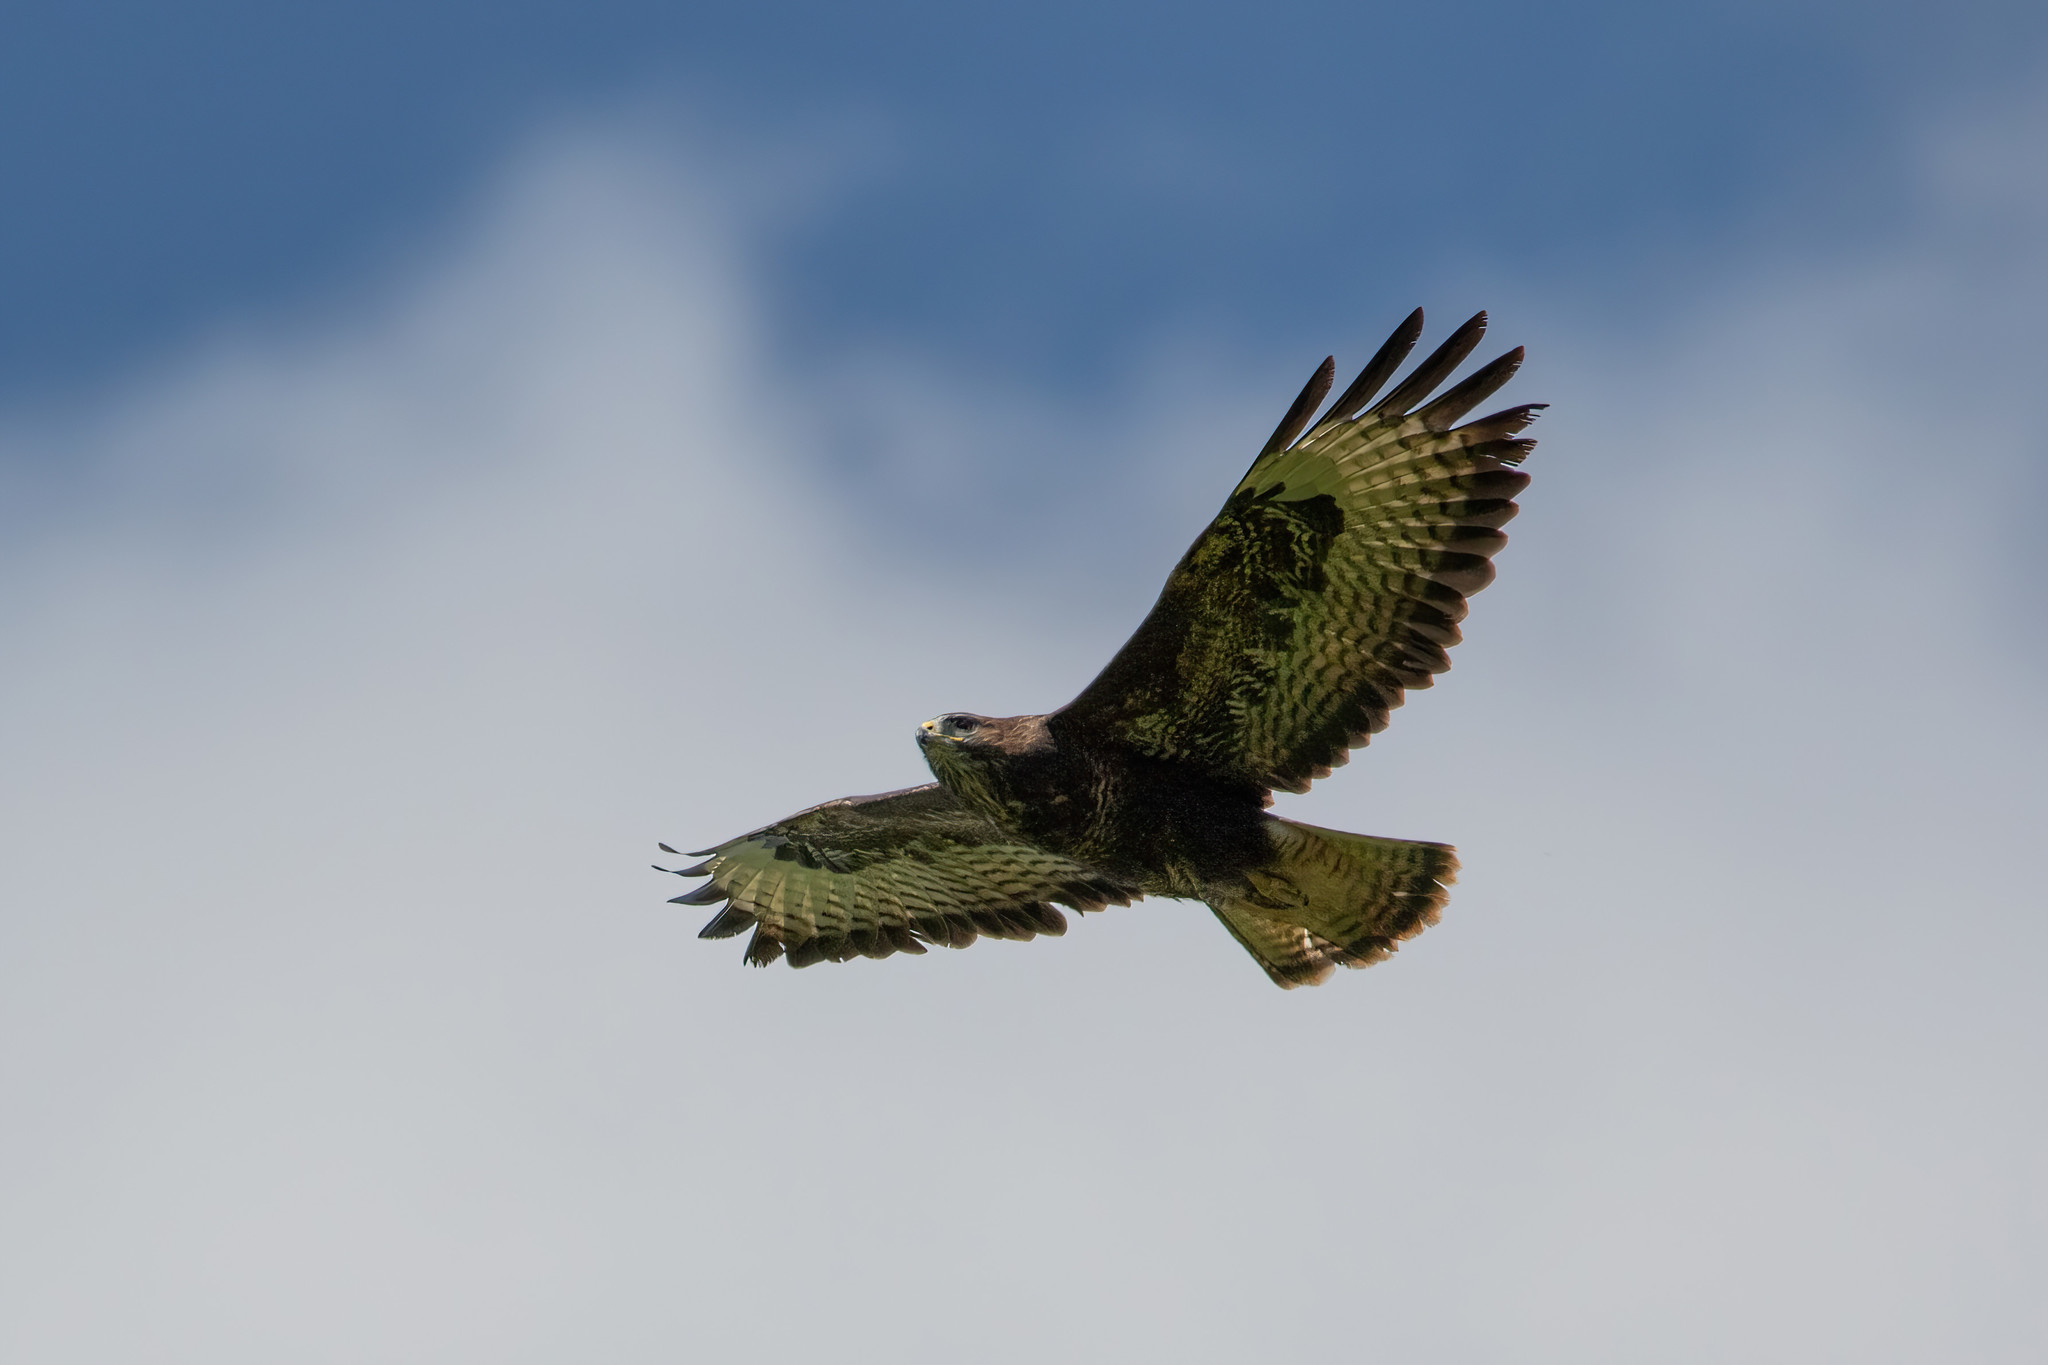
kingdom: Animalia
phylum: Chordata
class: Aves
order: Accipitriformes
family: Accipitridae
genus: Buteo
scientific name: Buteo buteo
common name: Common buzzard
